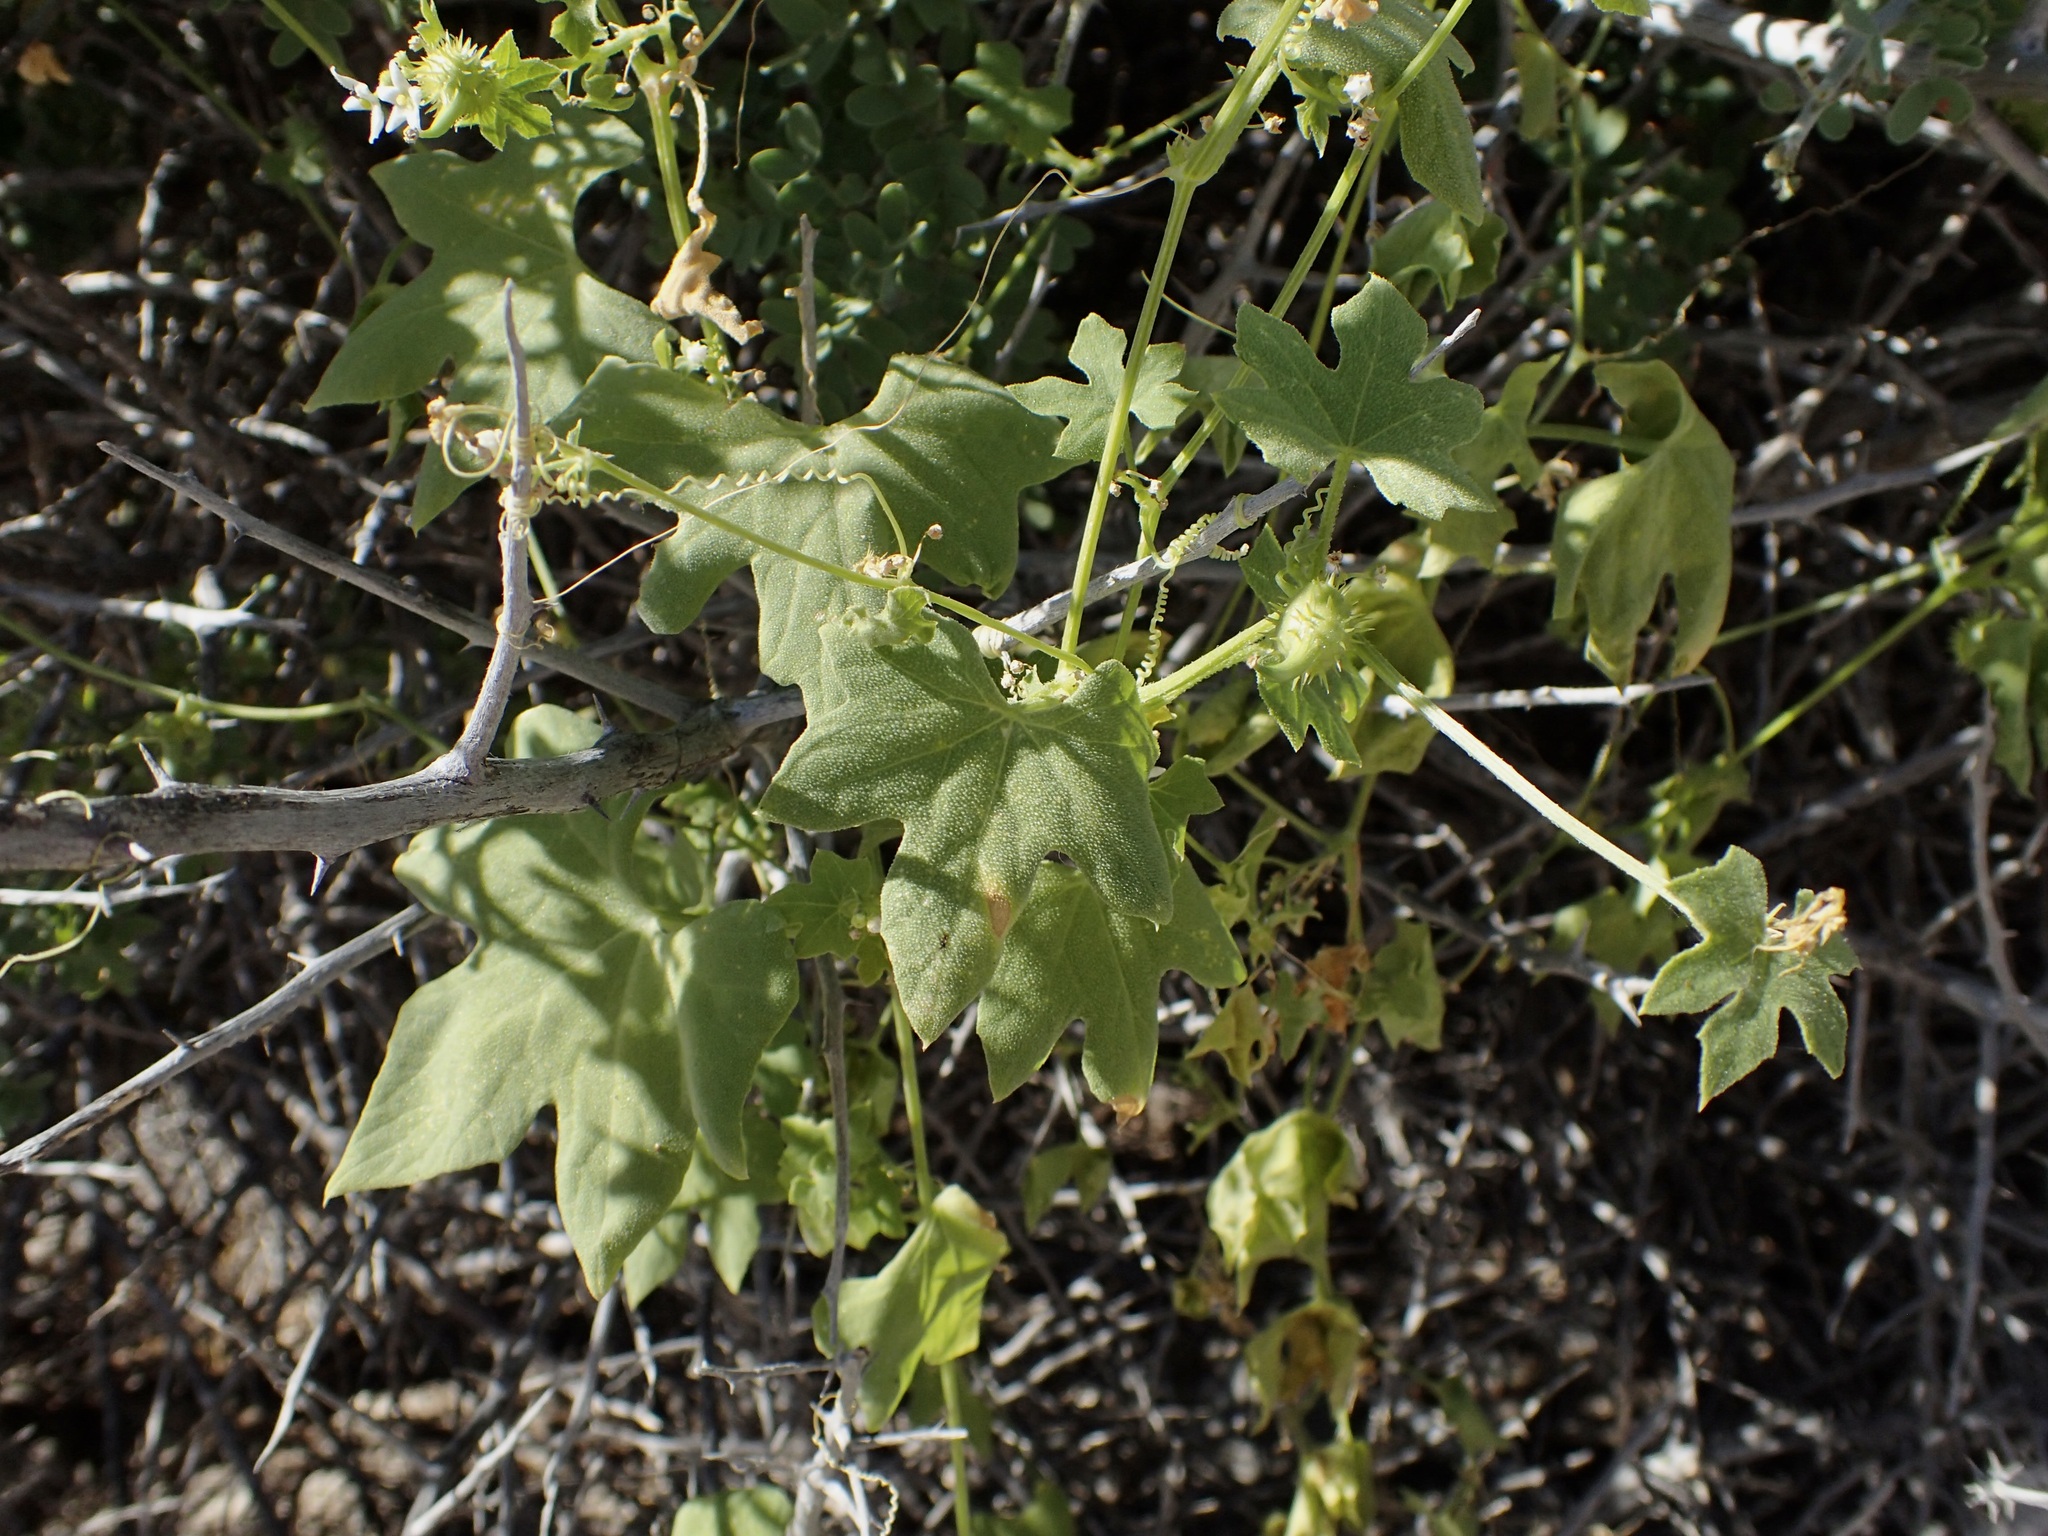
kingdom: Plantae
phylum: Tracheophyta
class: Magnoliopsida
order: Cucurbitales
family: Cucurbitaceae
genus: Echinopepon
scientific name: Echinopepon insularis
